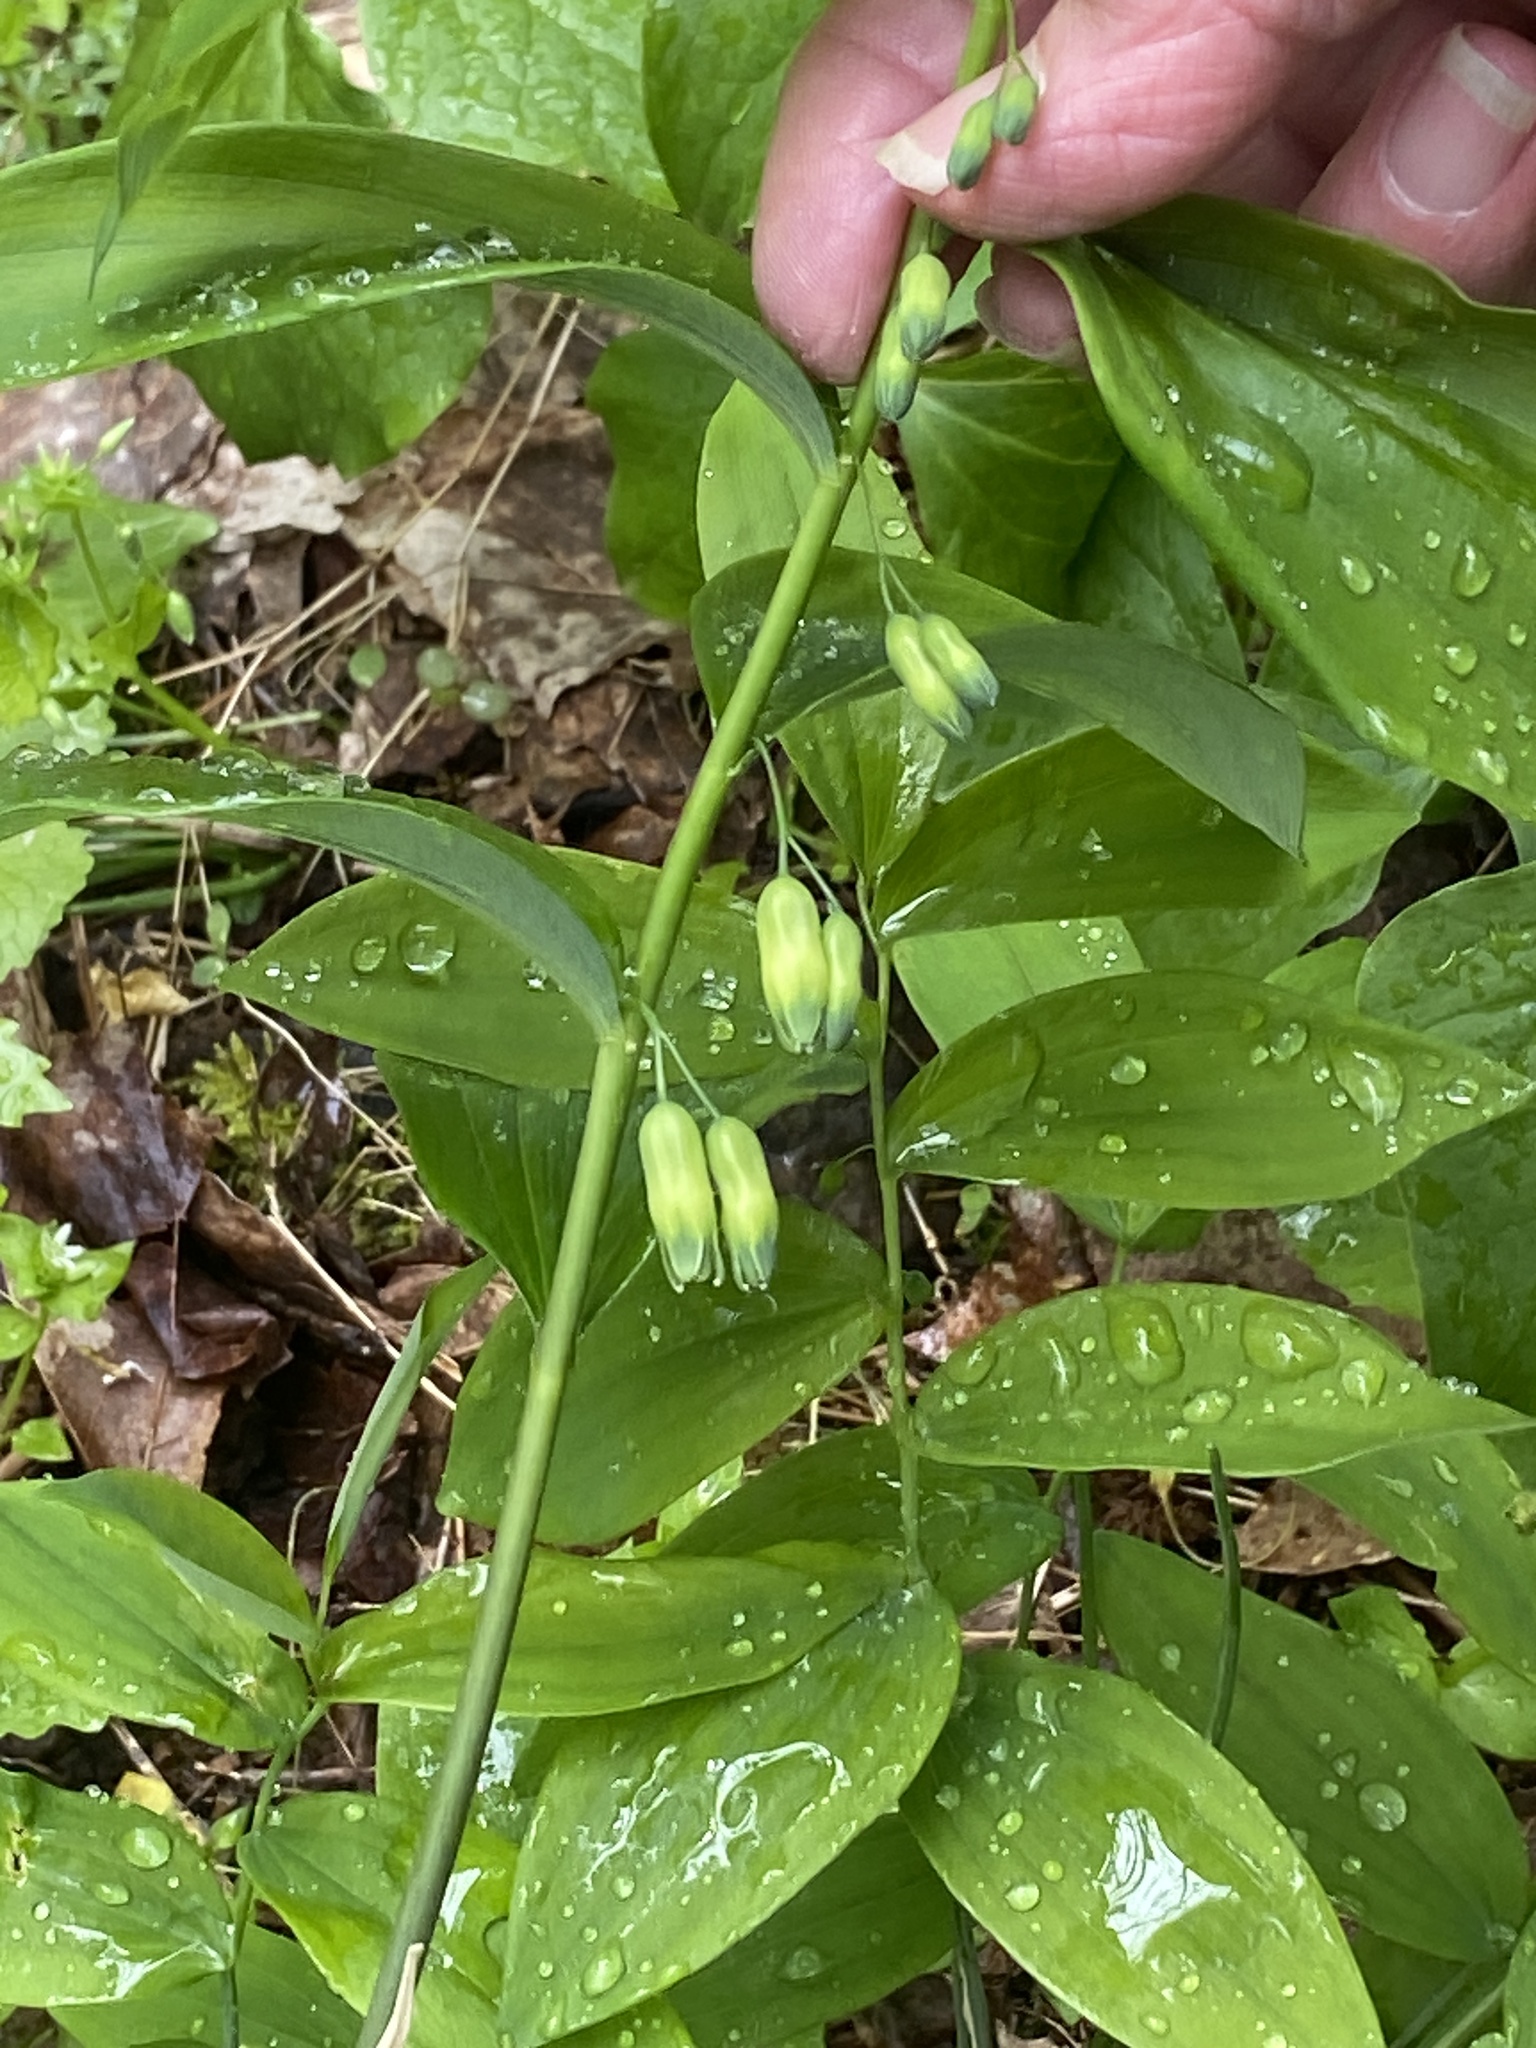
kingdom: Plantae
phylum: Tracheophyta
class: Liliopsida
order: Asparagales
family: Asparagaceae
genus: Polygonatum
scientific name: Polygonatum pubescens
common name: Downy solomon's seal
